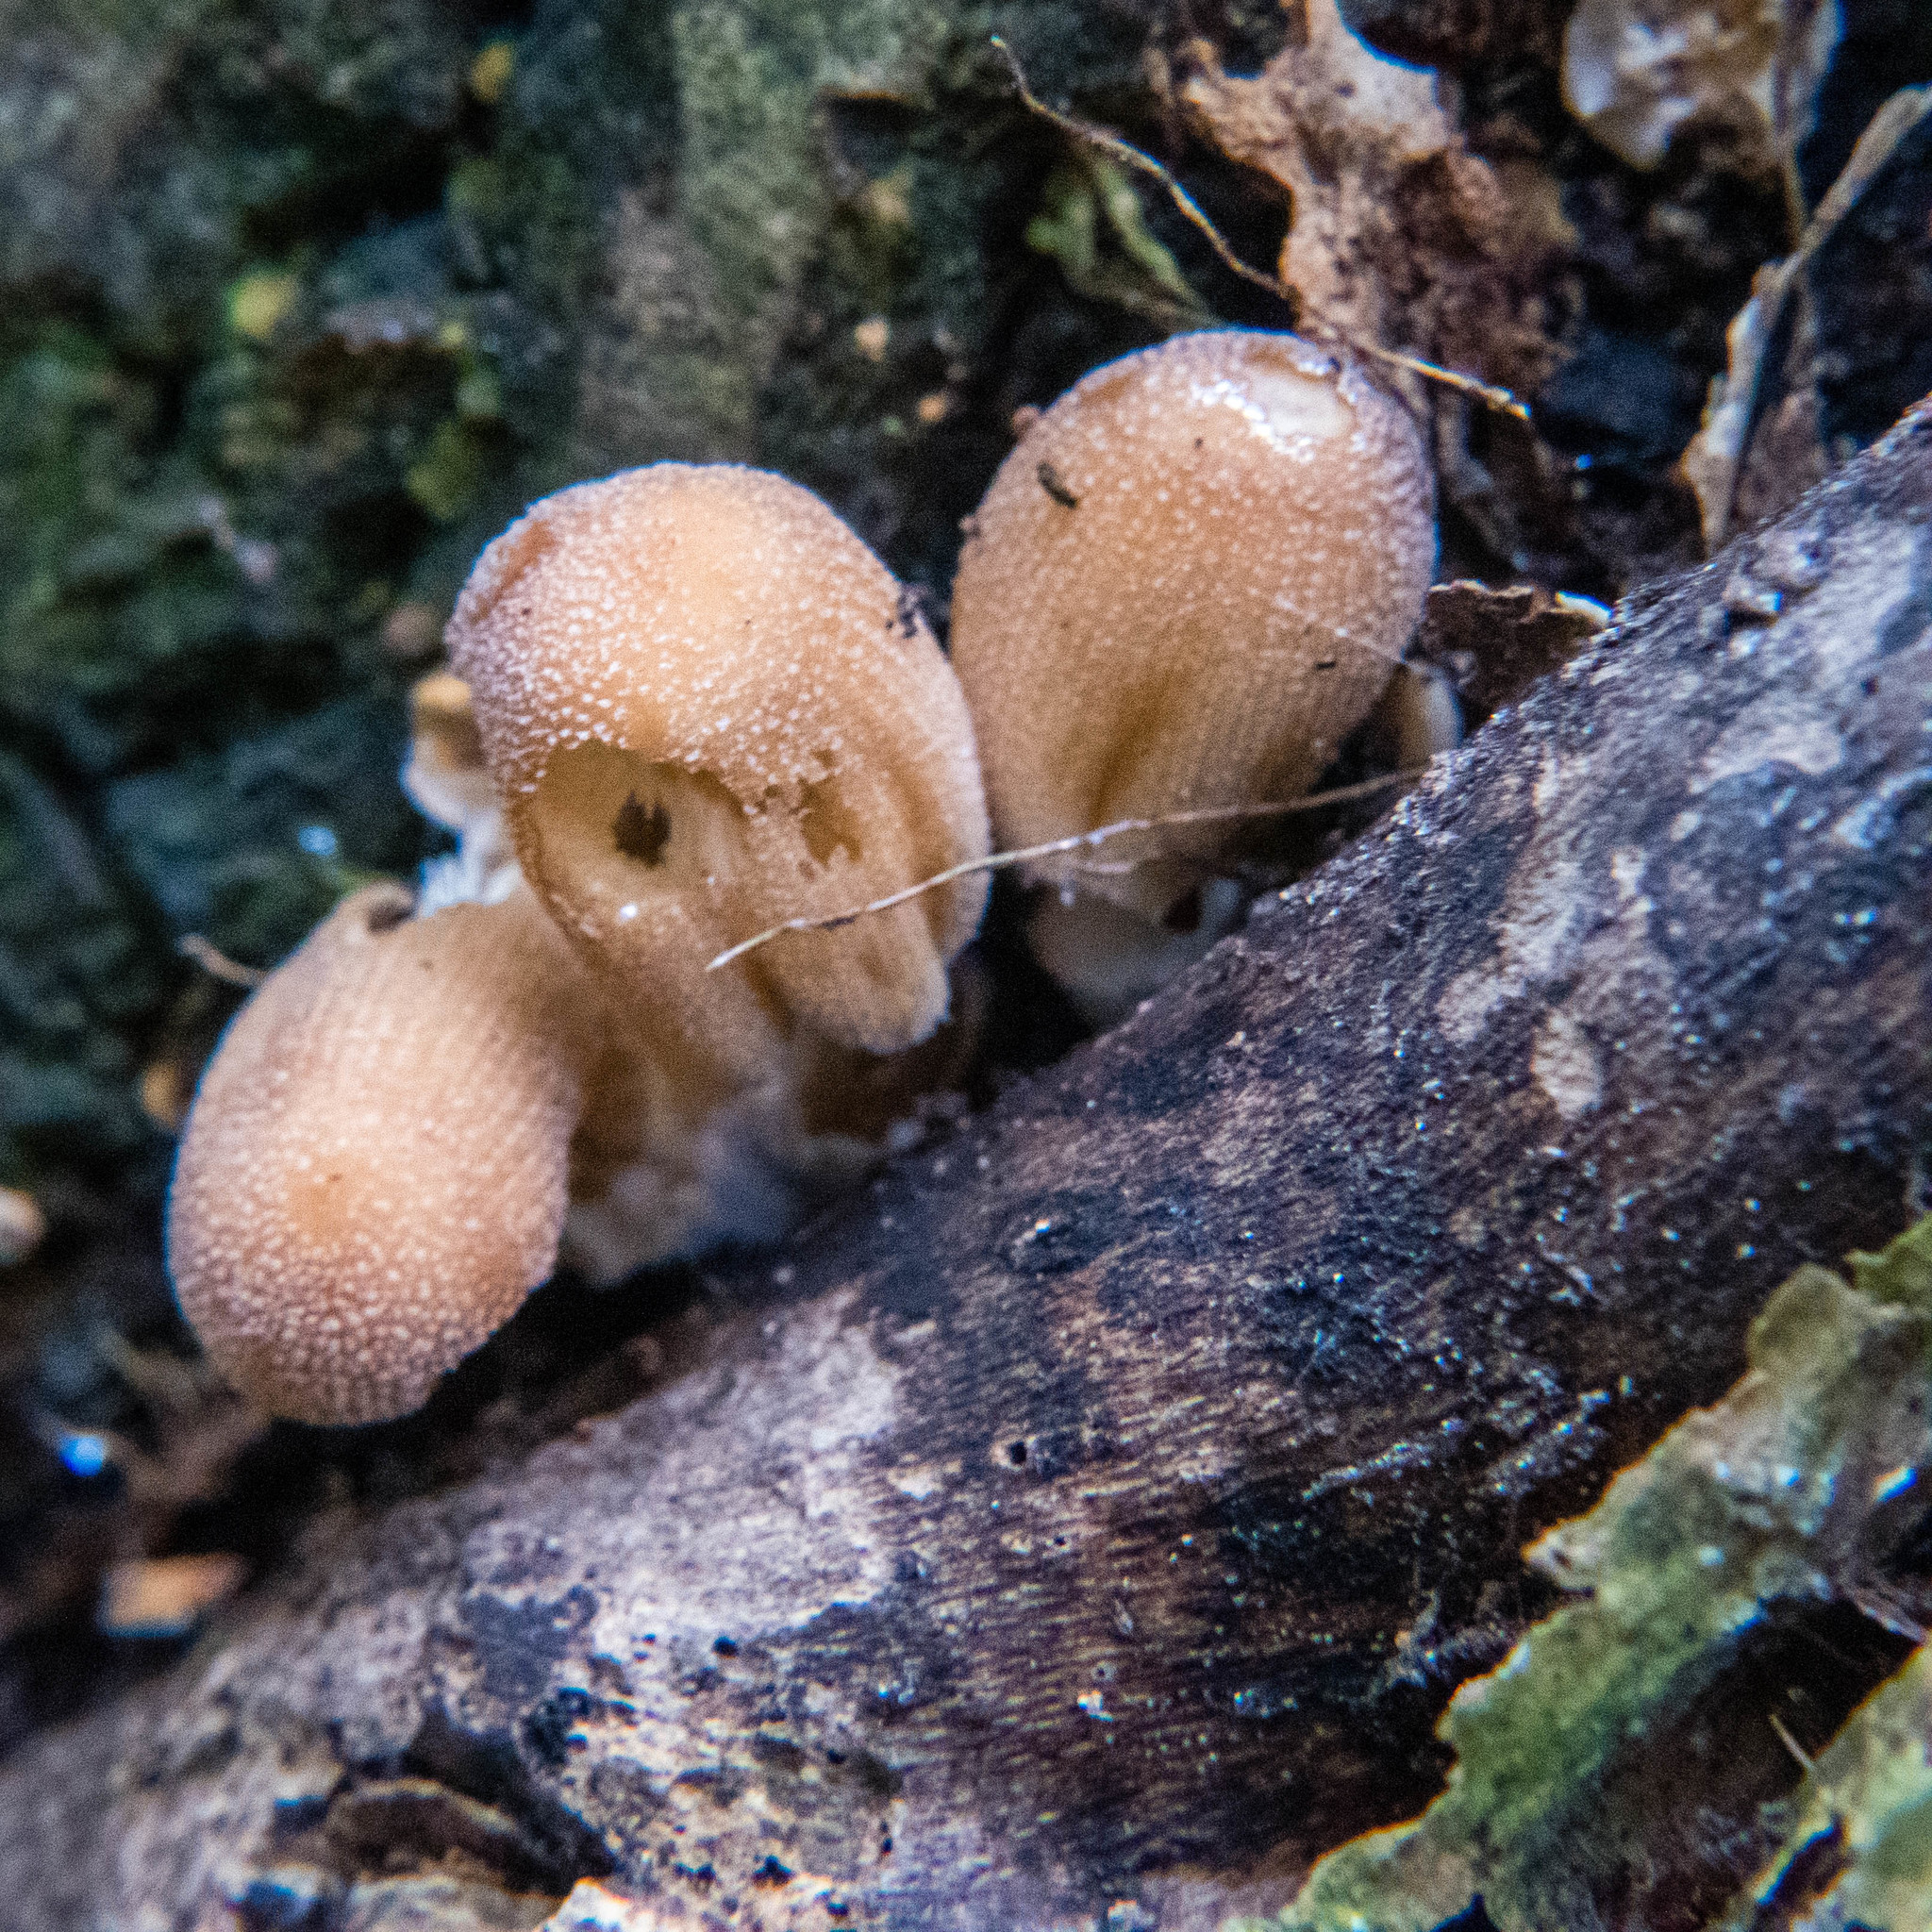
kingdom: Fungi
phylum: Basidiomycota
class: Agaricomycetes
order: Agaricales
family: Psathyrellaceae
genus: Coprinellus
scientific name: Coprinellus micaceus
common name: Glistening ink-cap
